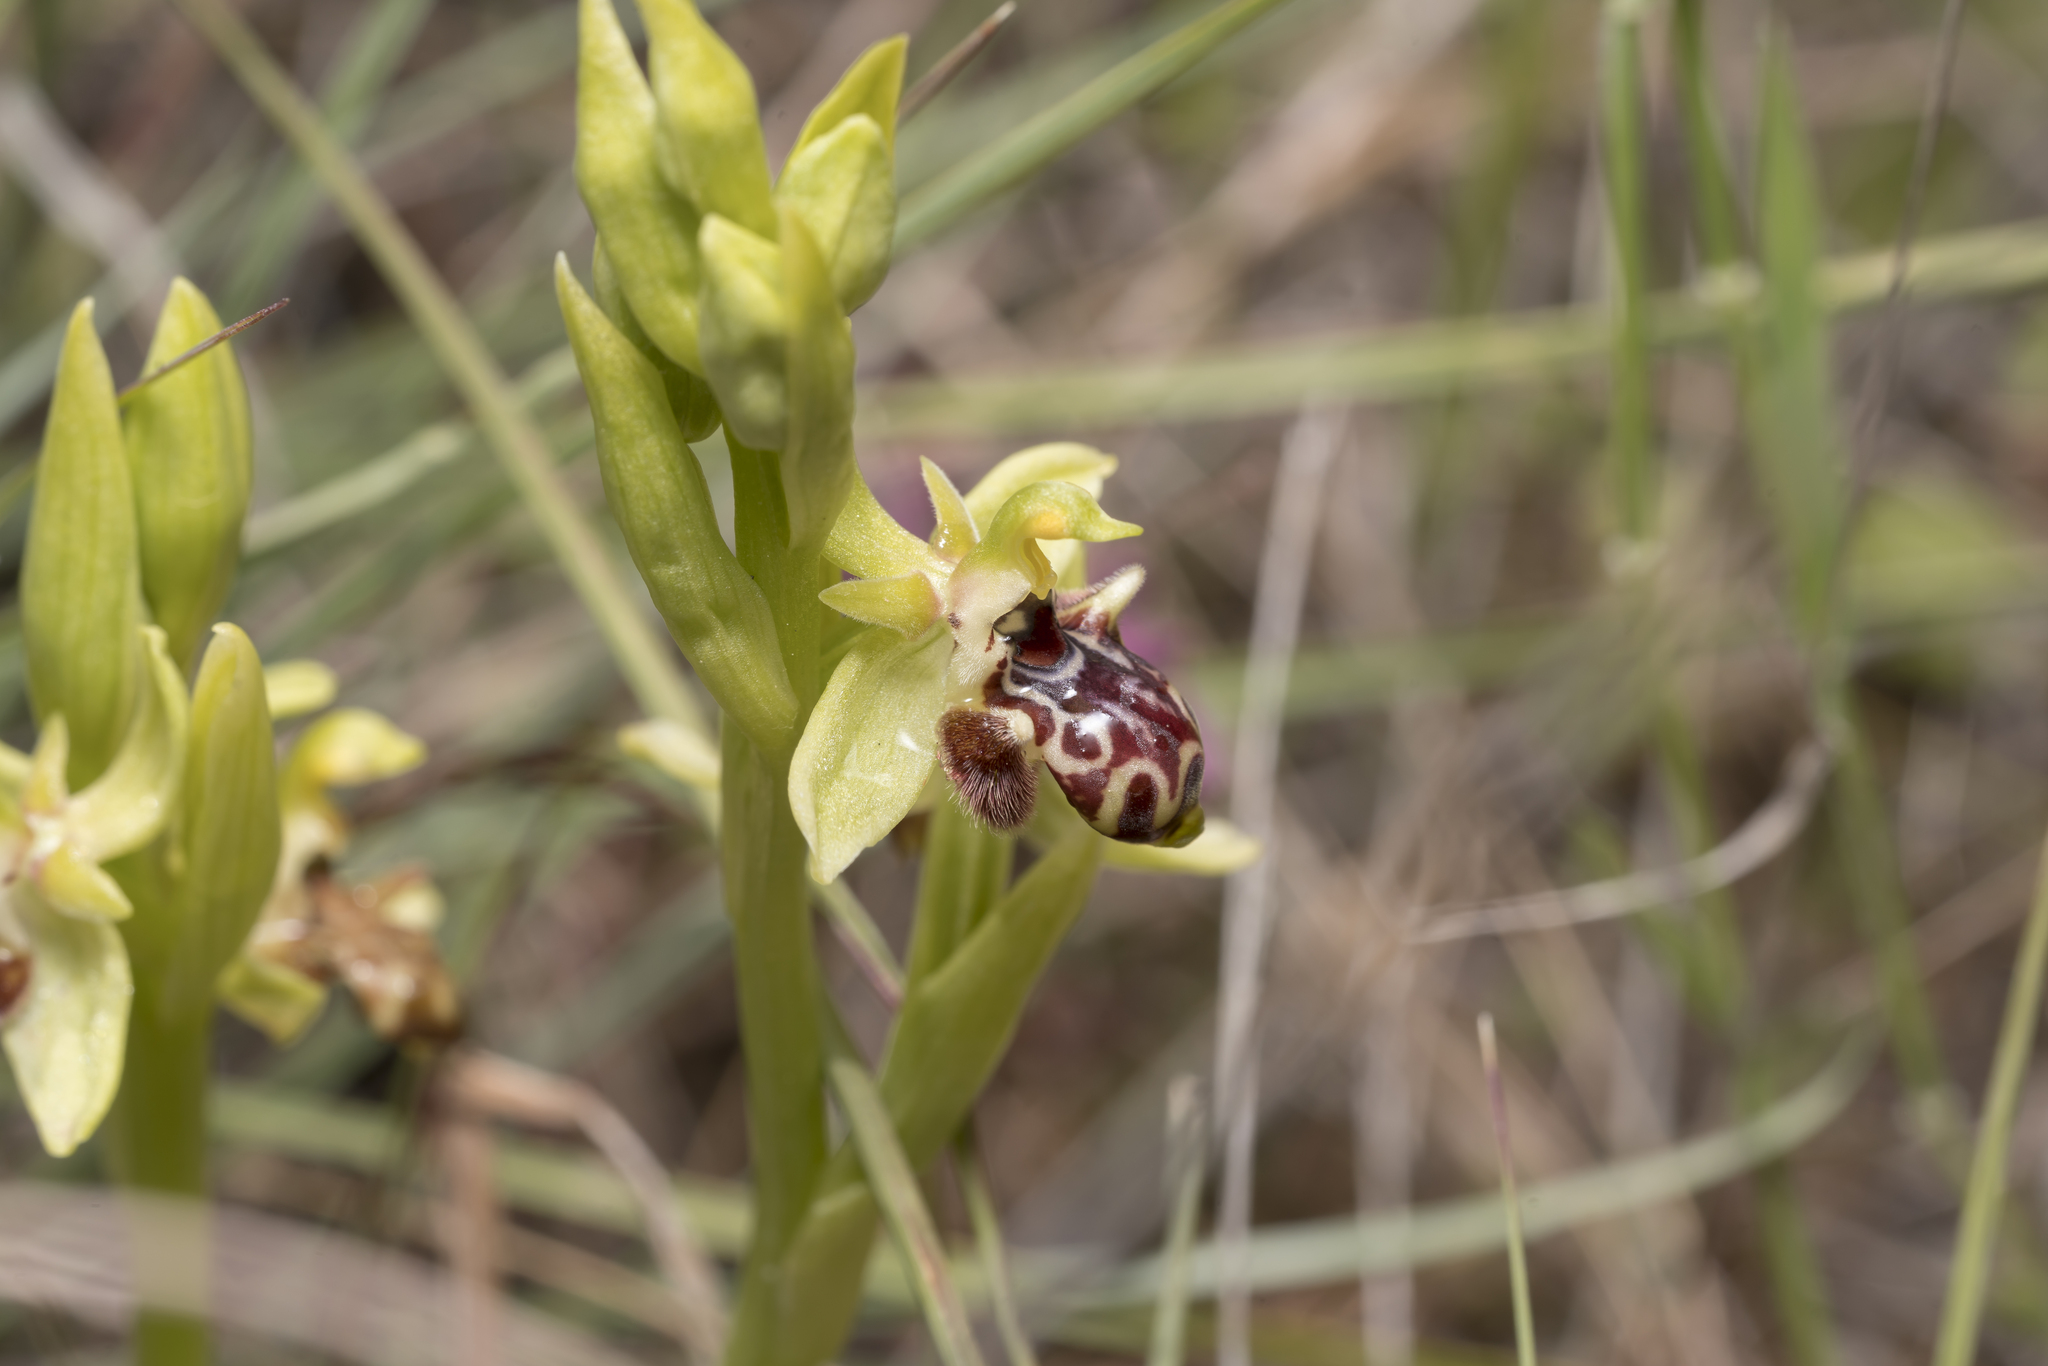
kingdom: Plantae
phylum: Tracheophyta
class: Liliopsida
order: Asparagales
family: Orchidaceae
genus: Ophrys
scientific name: Ophrys scolopax
